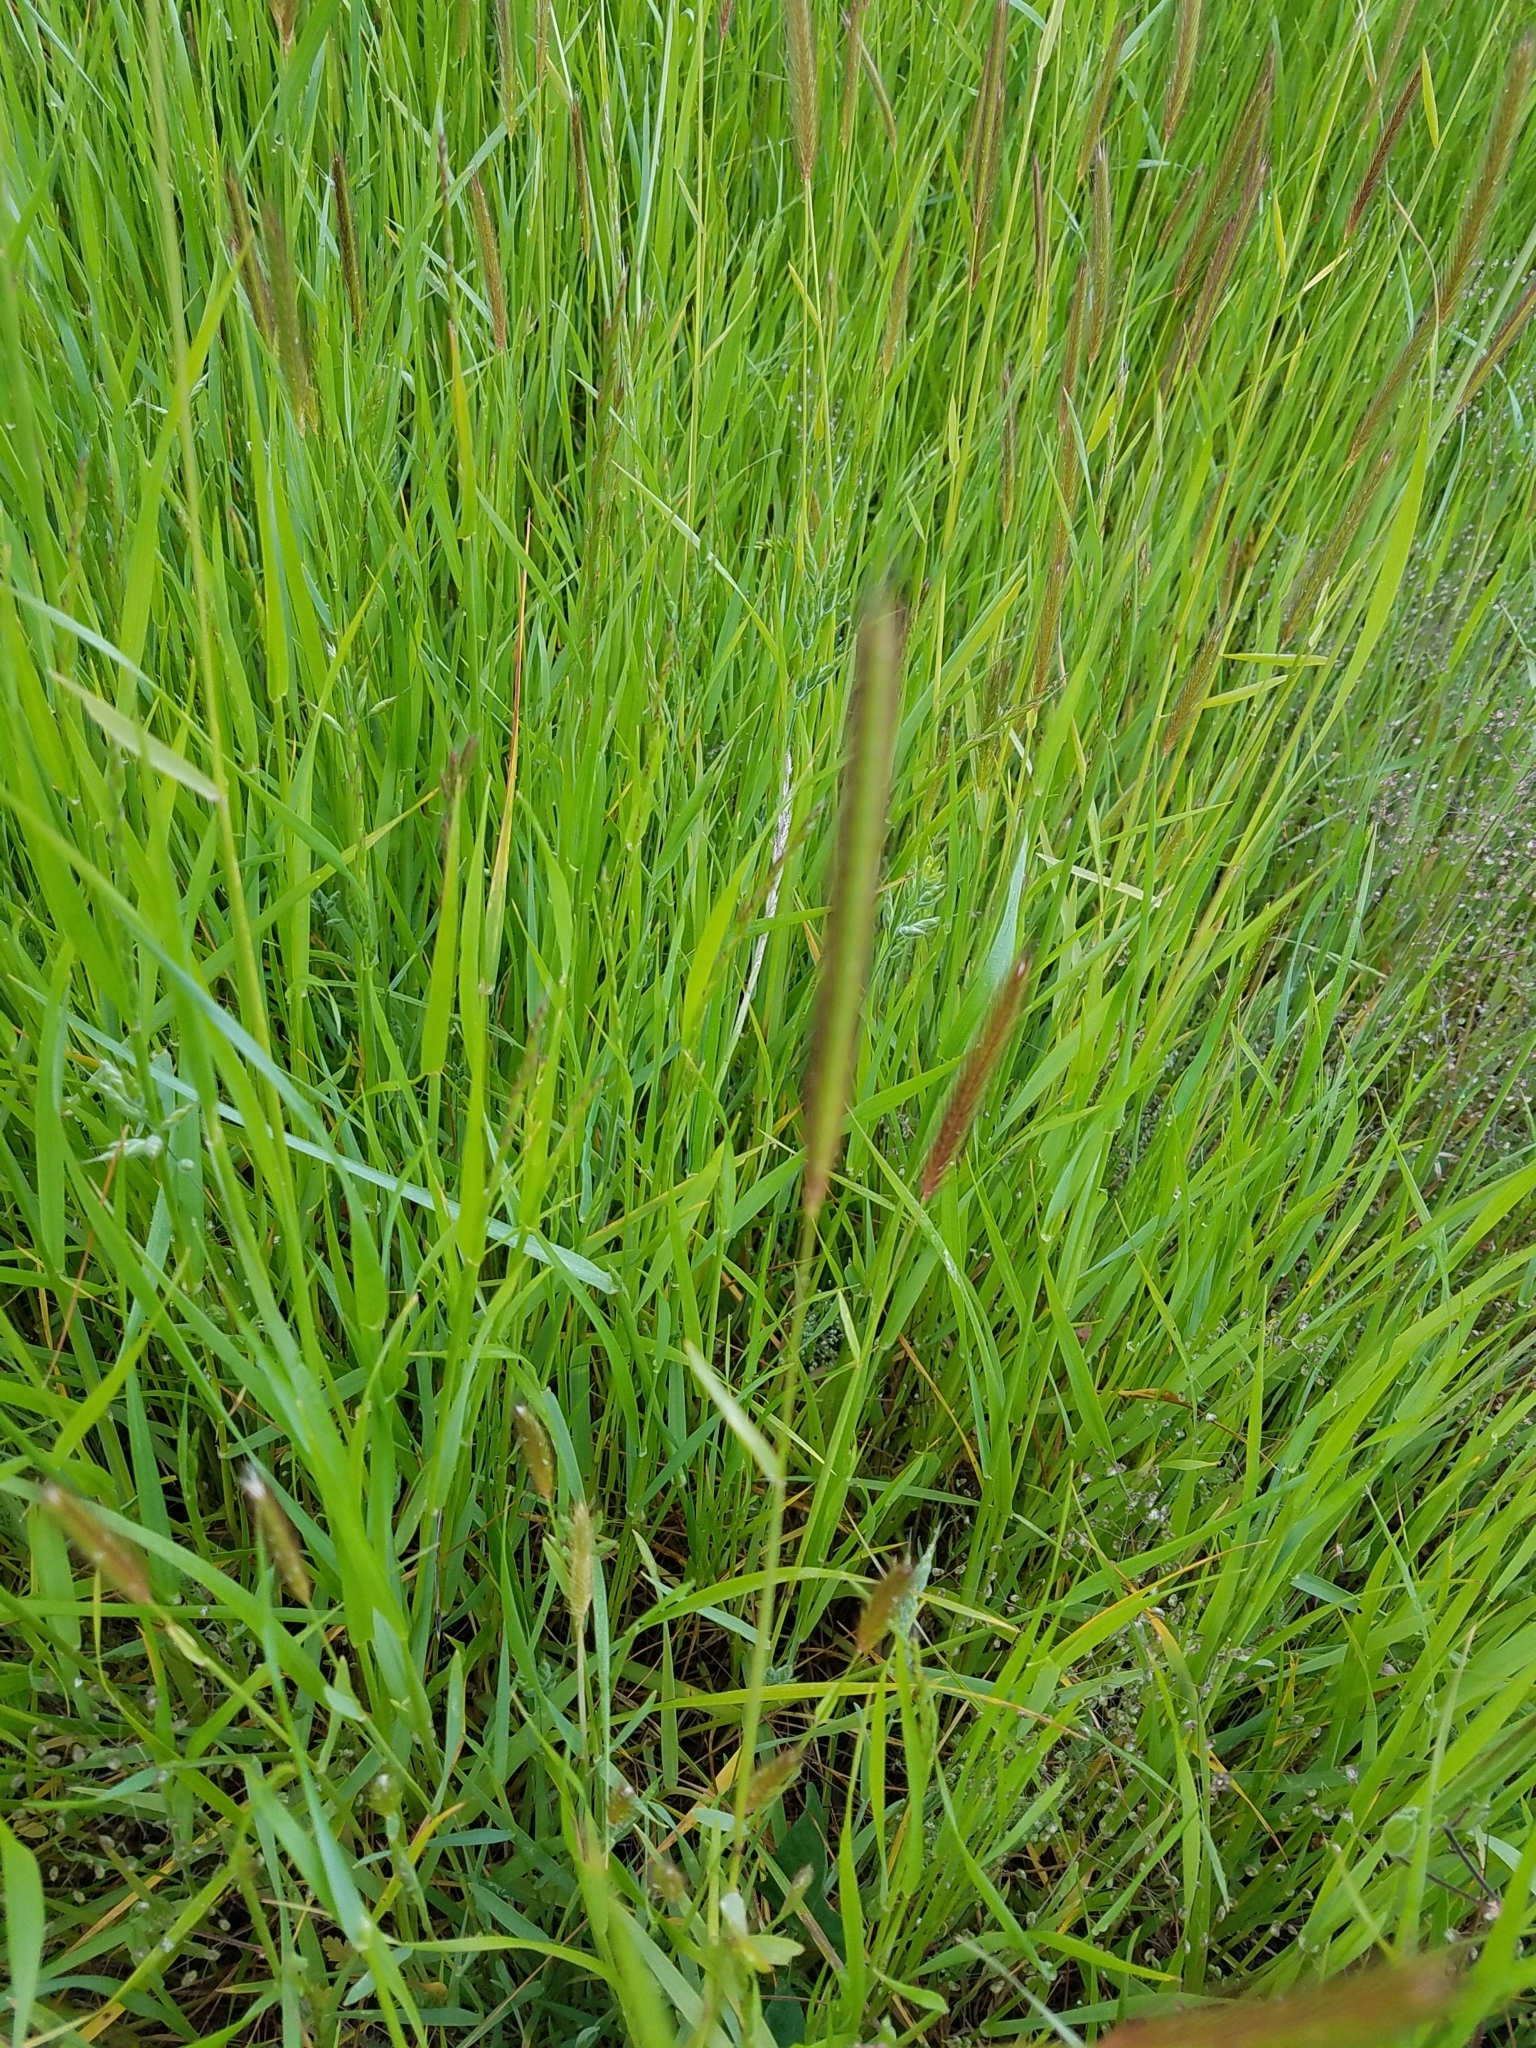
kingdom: Plantae
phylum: Tracheophyta
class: Liliopsida
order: Poales
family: Poaceae
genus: Hordeum
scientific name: Hordeum brachyantherum
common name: Meadow barley
